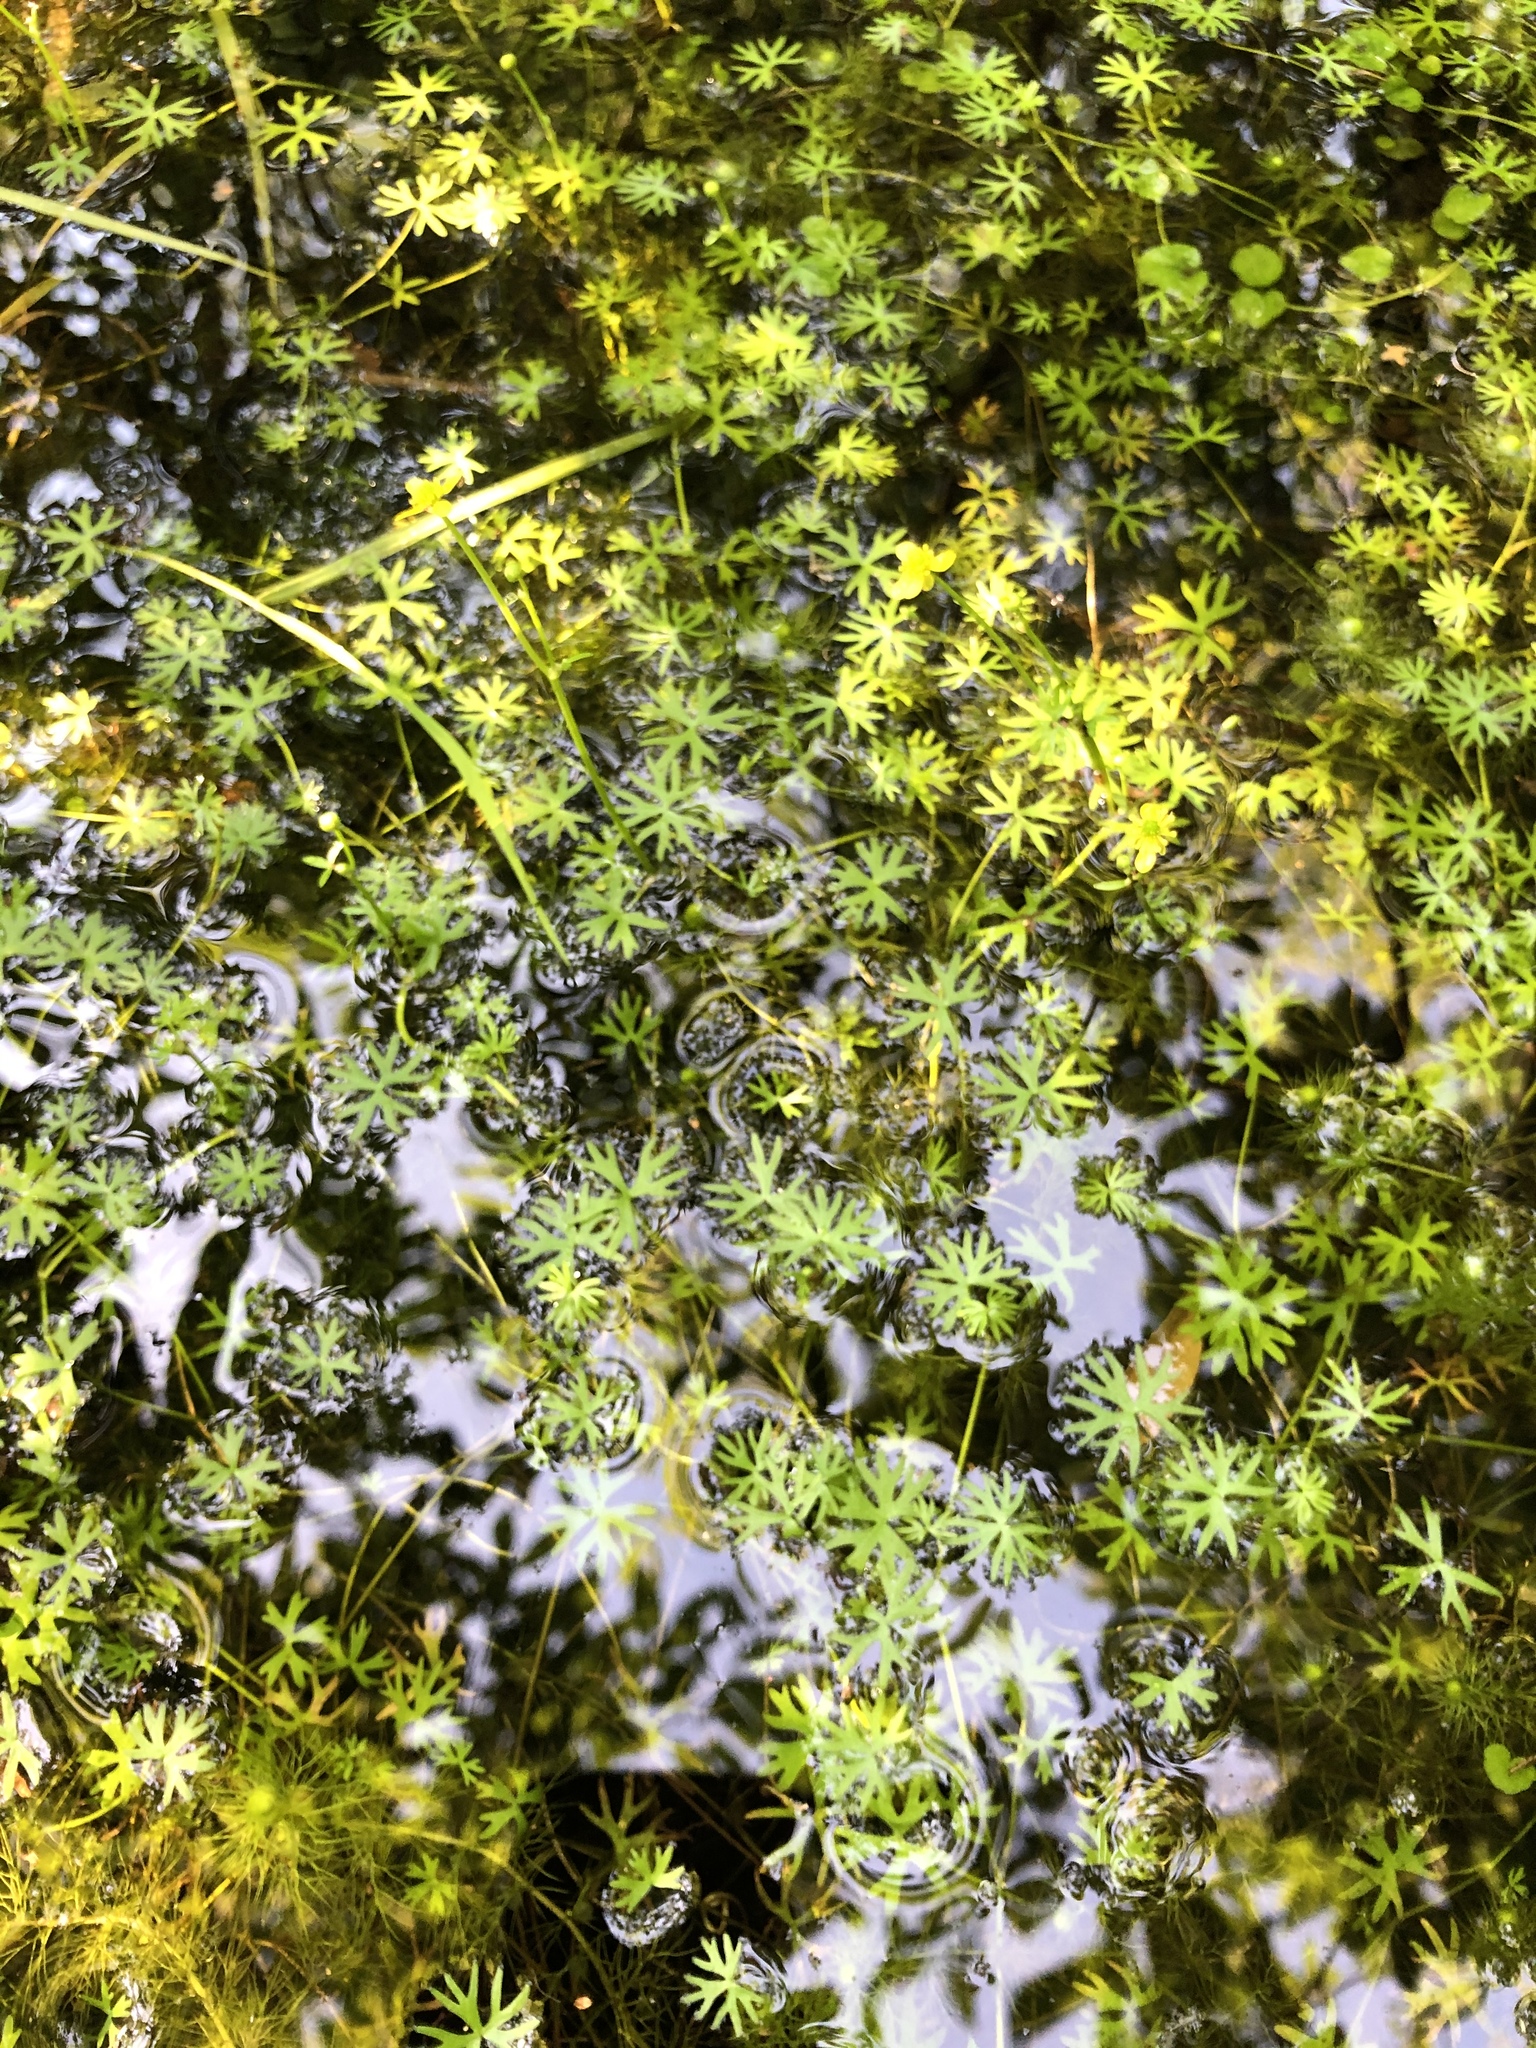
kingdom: Plantae
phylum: Tracheophyta
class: Magnoliopsida
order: Ranunculales
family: Ranunculaceae
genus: Ranunculus
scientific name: Ranunculus gmelinii
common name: Gmelin's buttercup
